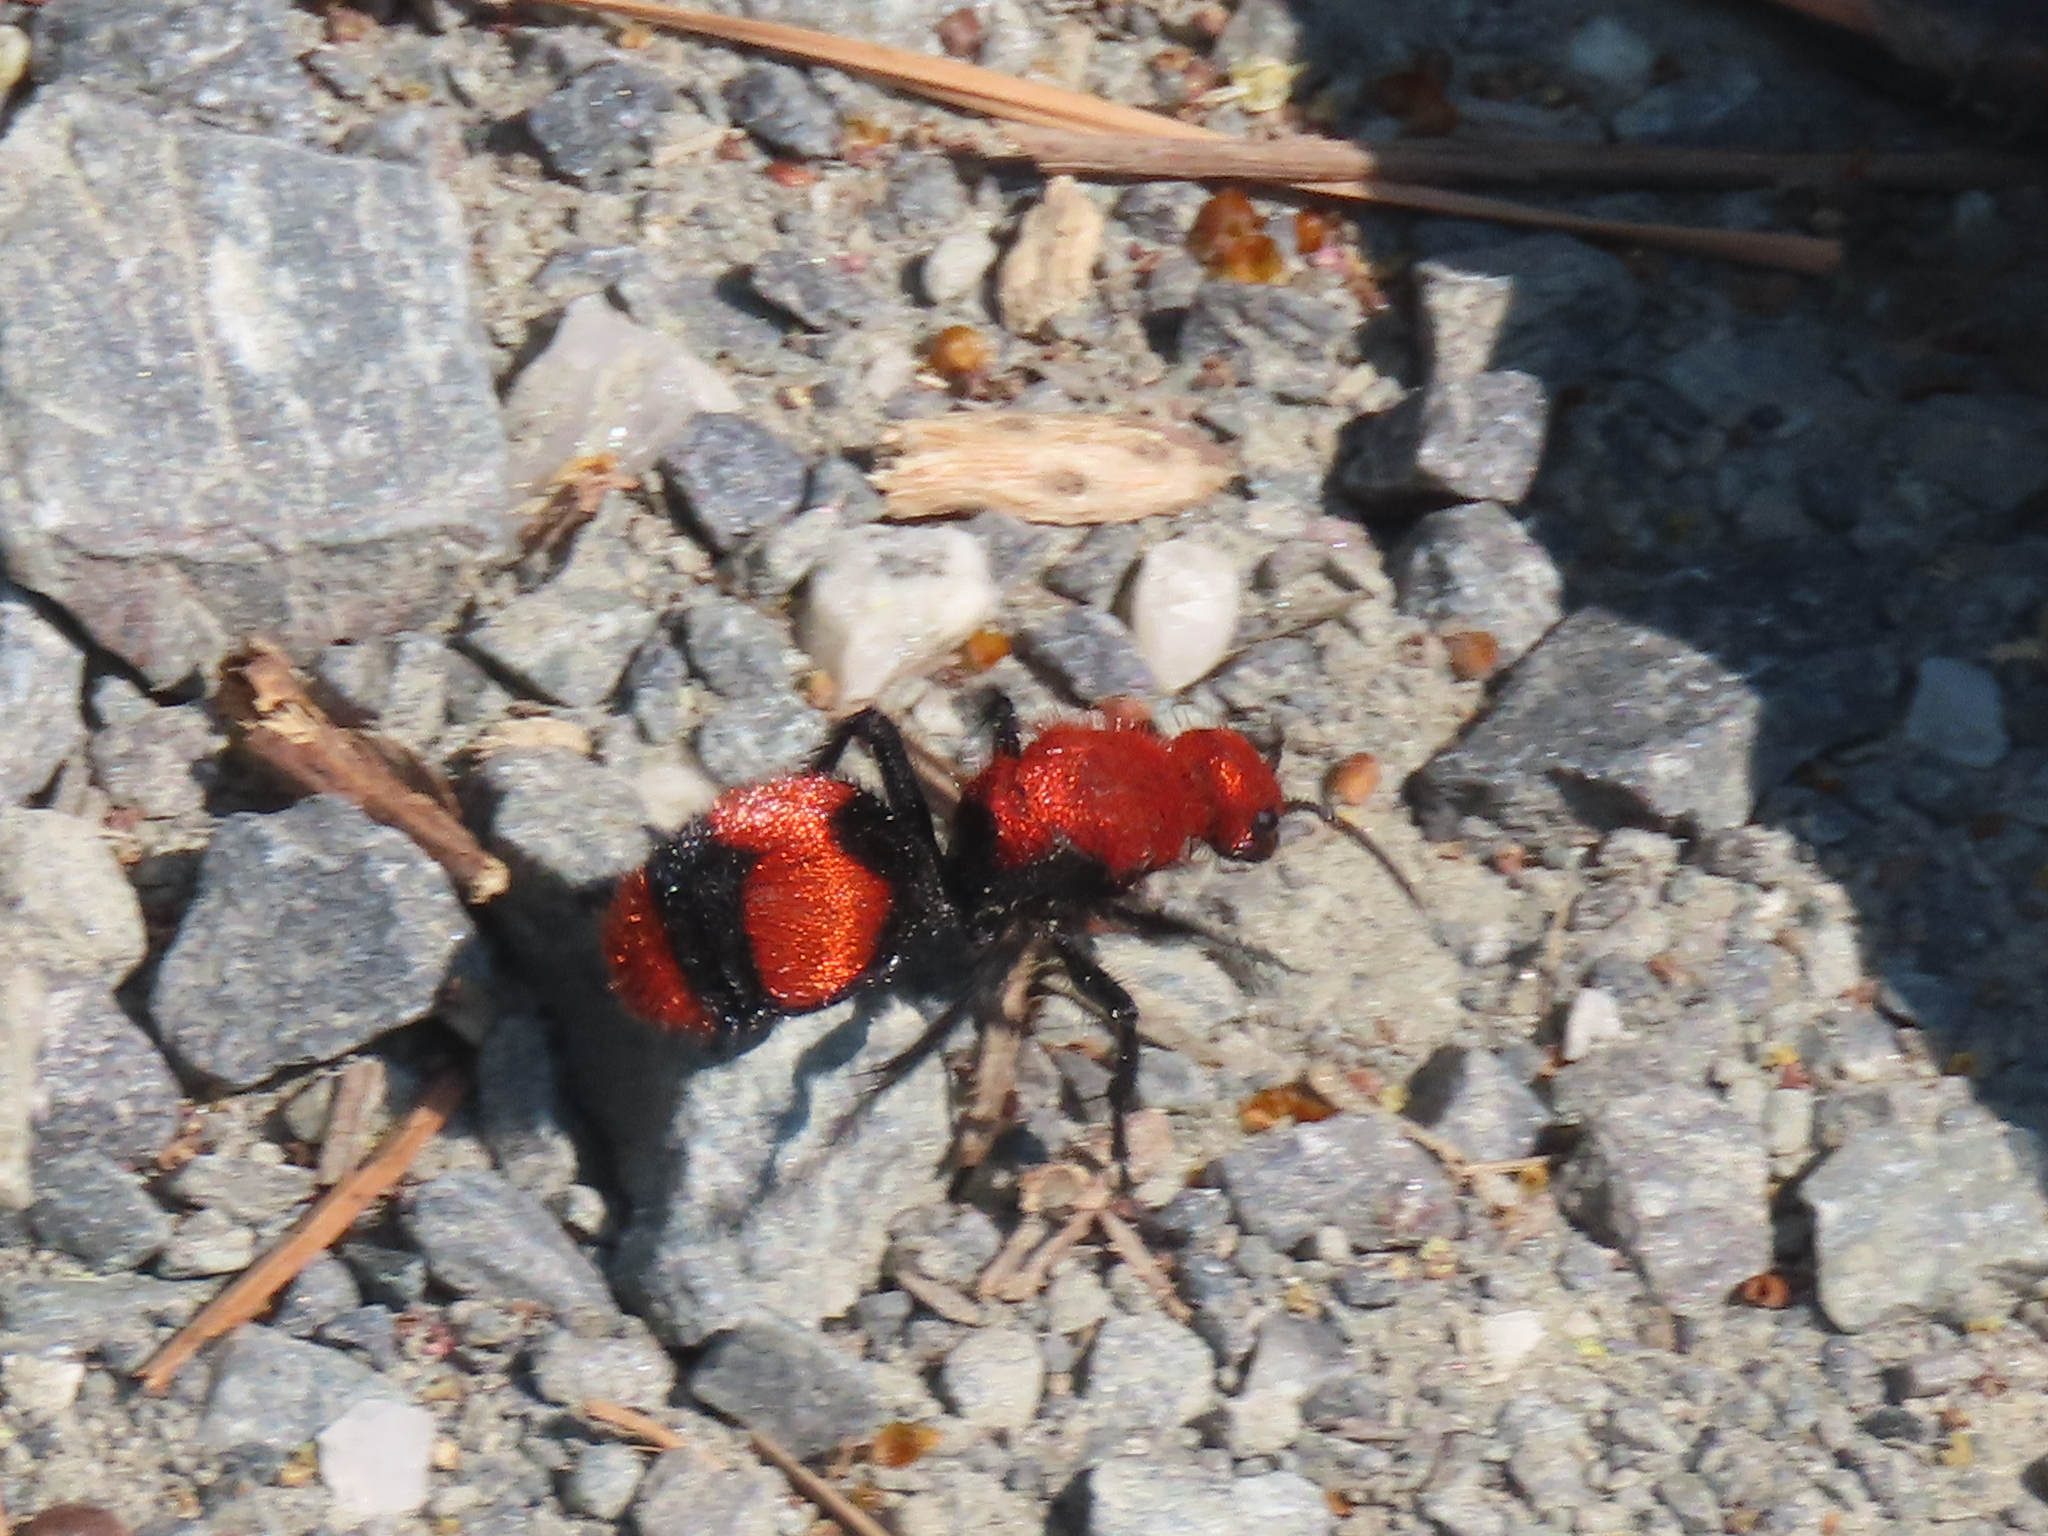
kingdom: Animalia
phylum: Arthropoda
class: Insecta
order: Hymenoptera
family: Mutillidae
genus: Dasymutilla
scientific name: Dasymutilla occidentalis
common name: Common eastern velvet ant
